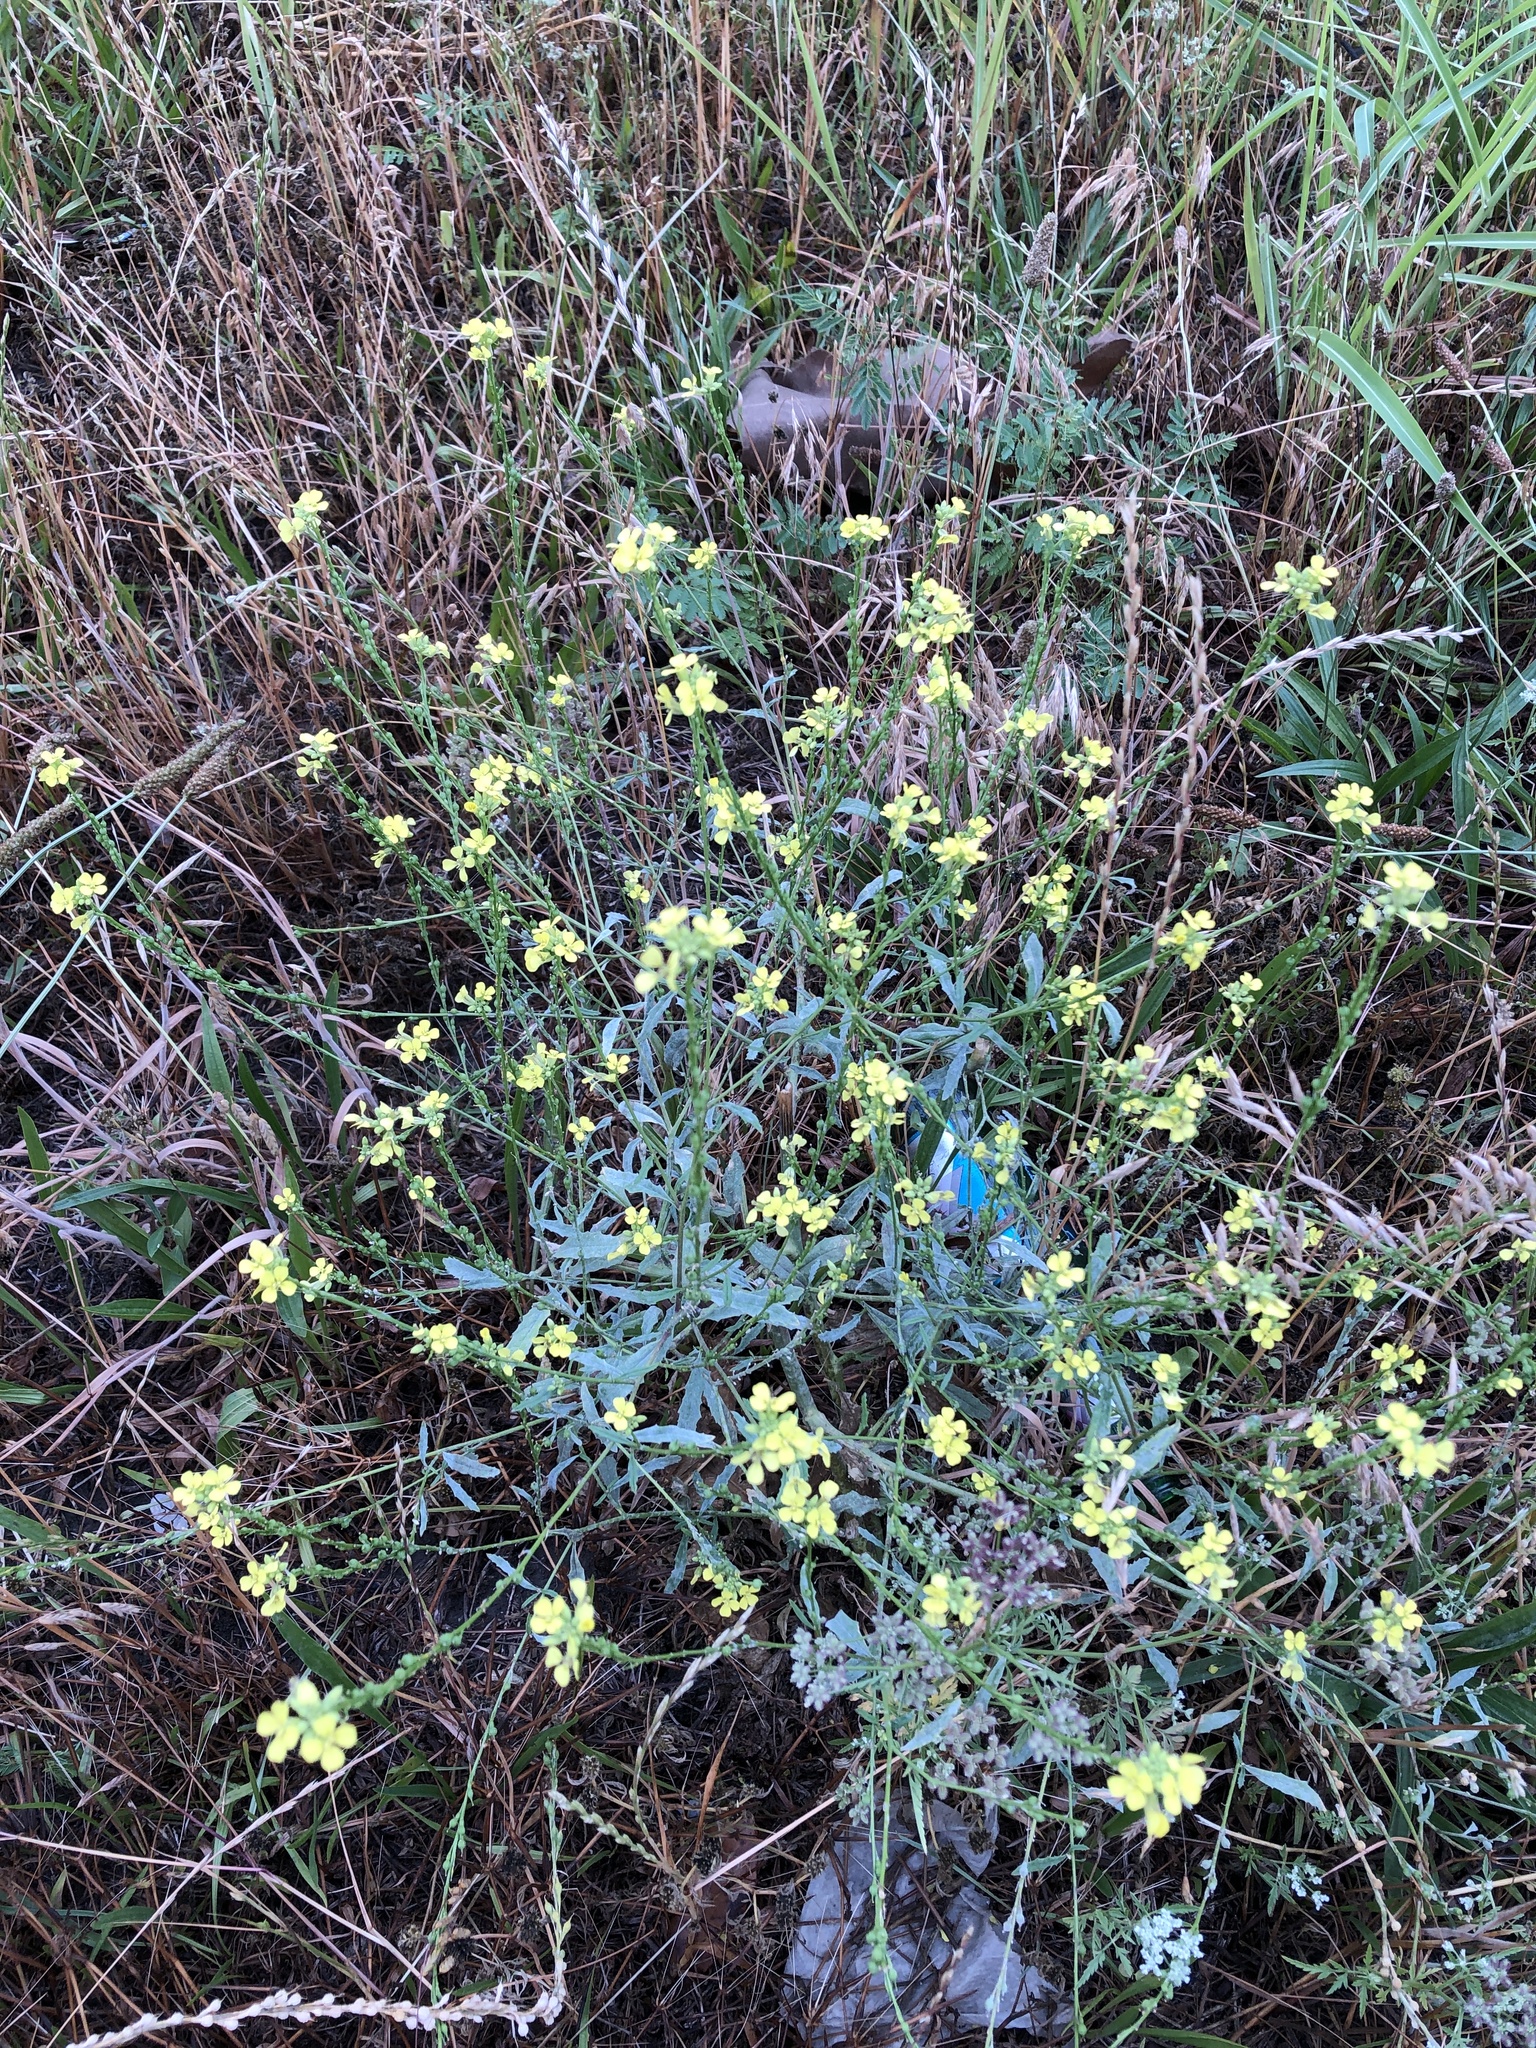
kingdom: Plantae
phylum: Tracheophyta
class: Magnoliopsida
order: Brassicales
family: Brassicaceae
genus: Rapistrum
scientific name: Rapistrum rugosum
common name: Annual bastardcabbage
